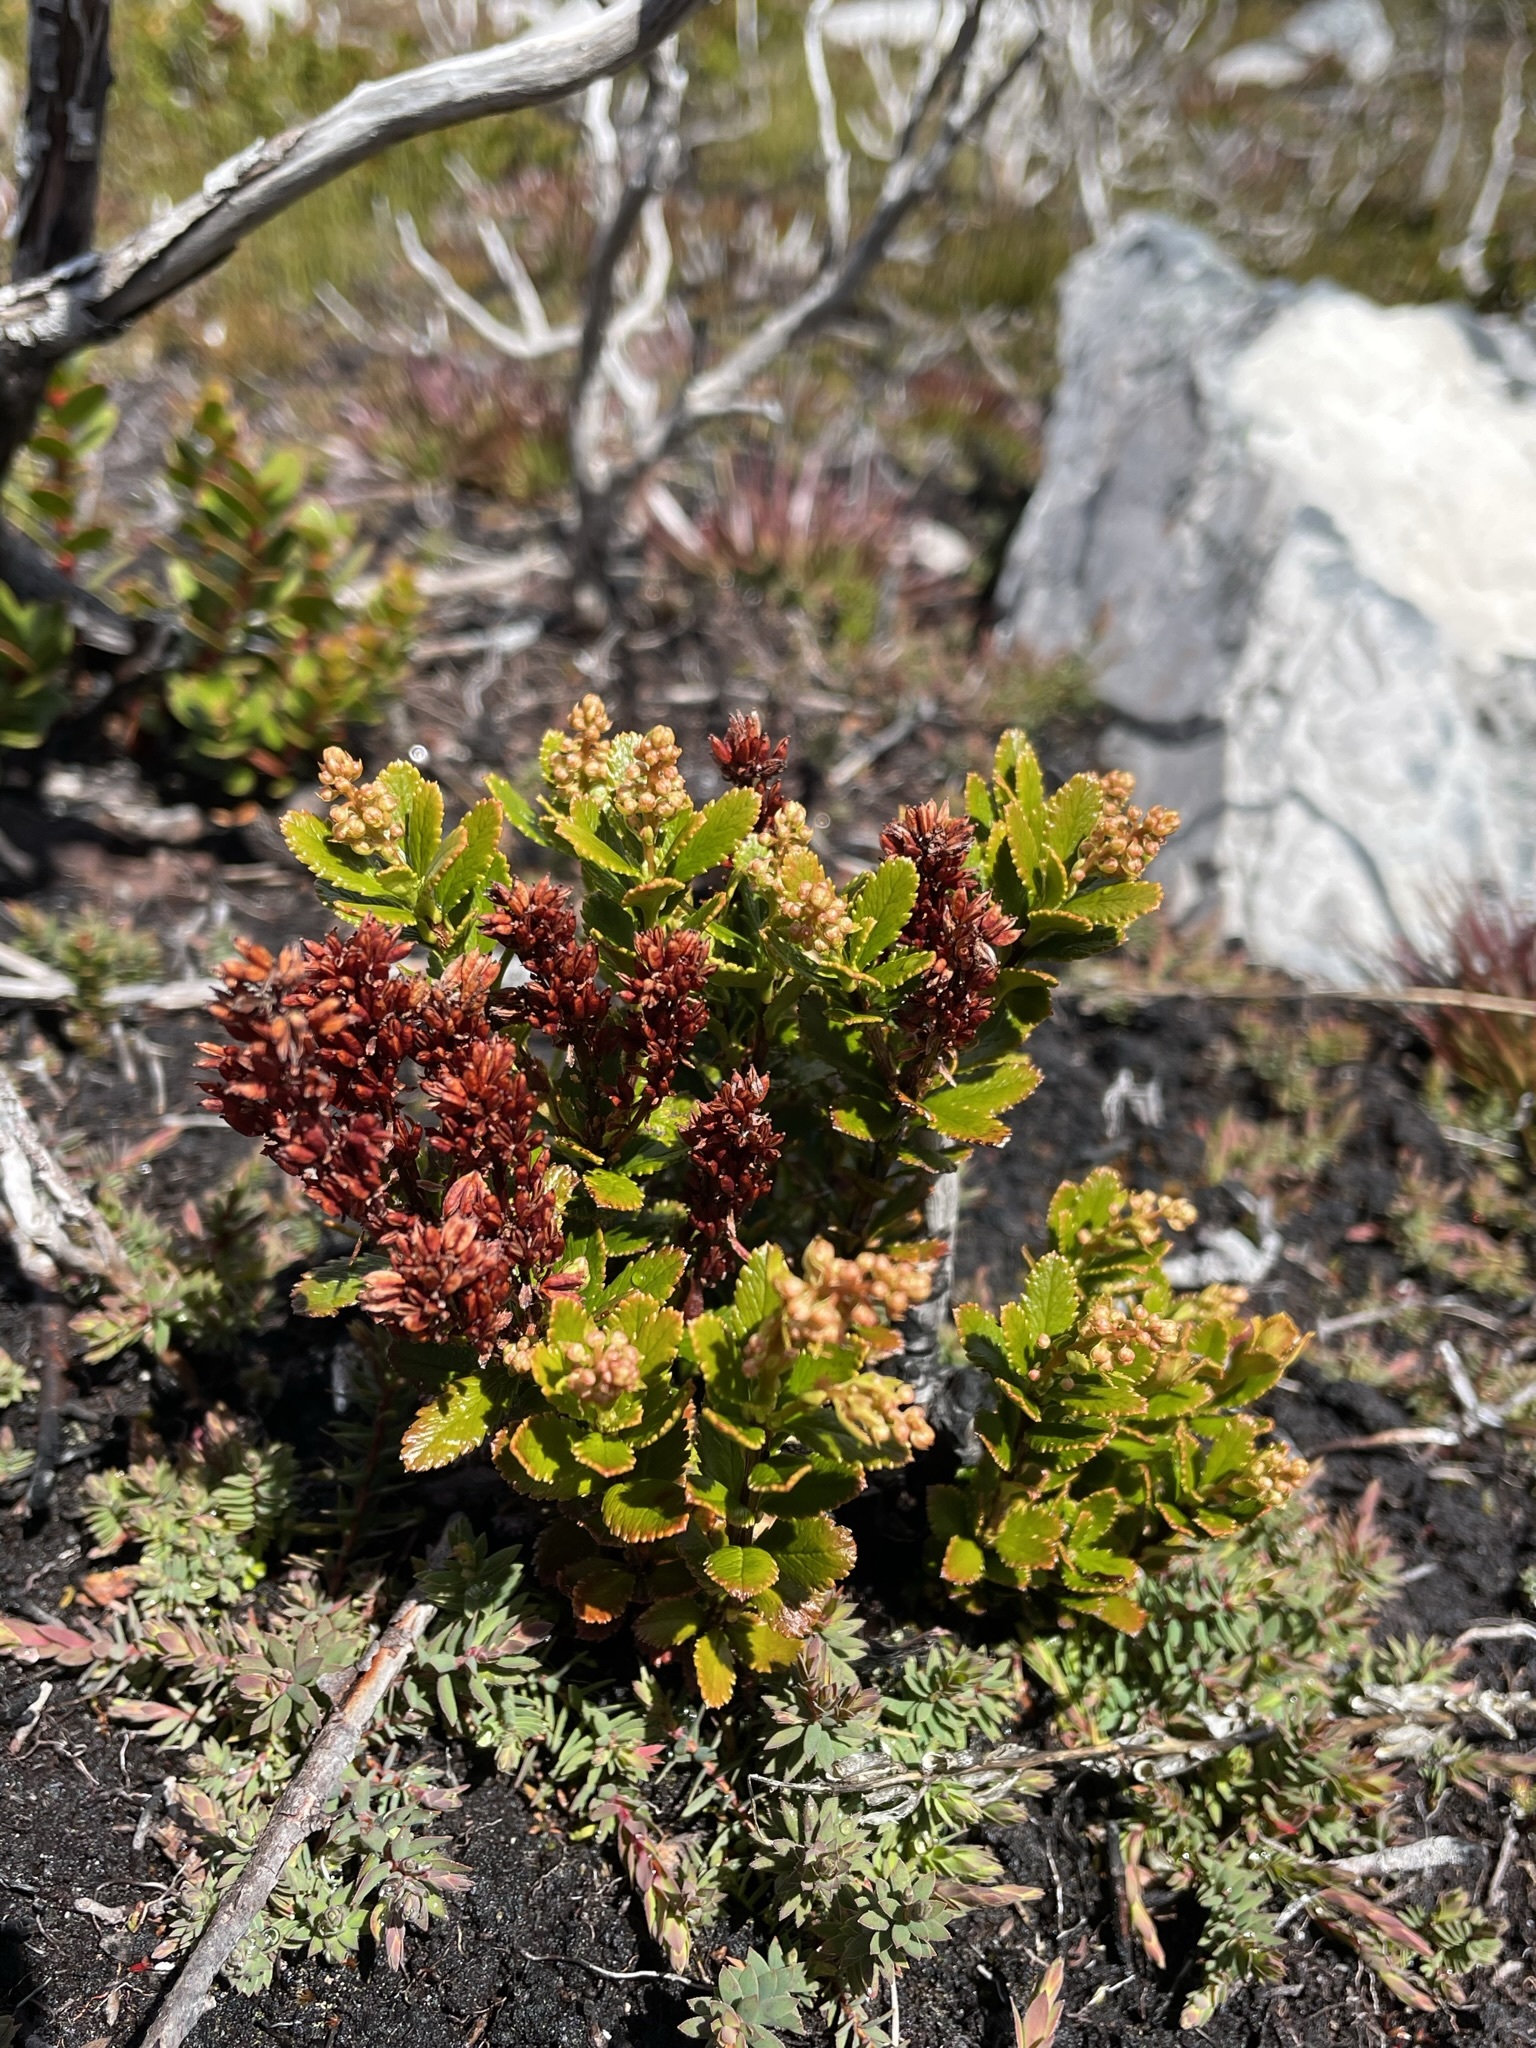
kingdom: Plantae
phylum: Tracheophyta
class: Magnoliopsida
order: Saxifragales
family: Tetracarpaeaceae
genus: Tetracarpaea
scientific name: Tetracarpaea tasmanica
